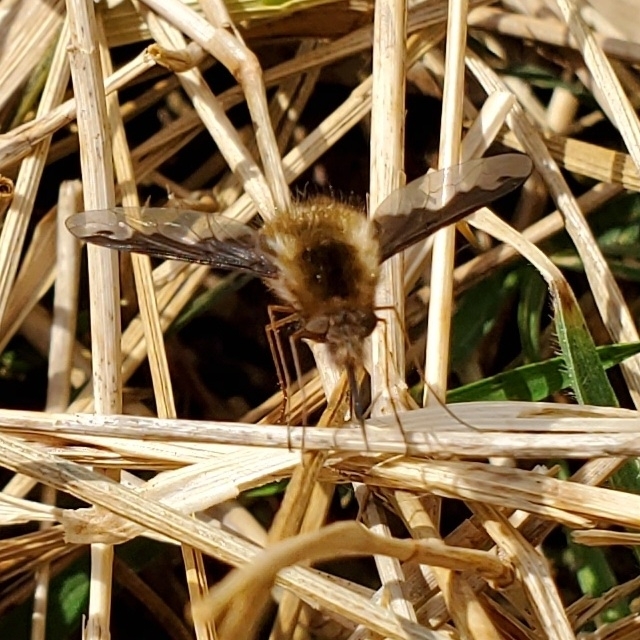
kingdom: Animalia
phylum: Arthropoda
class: Insecta
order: Diptera
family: Bombyliidae
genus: Bombylius
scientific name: Bombylius major
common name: Bee fly
